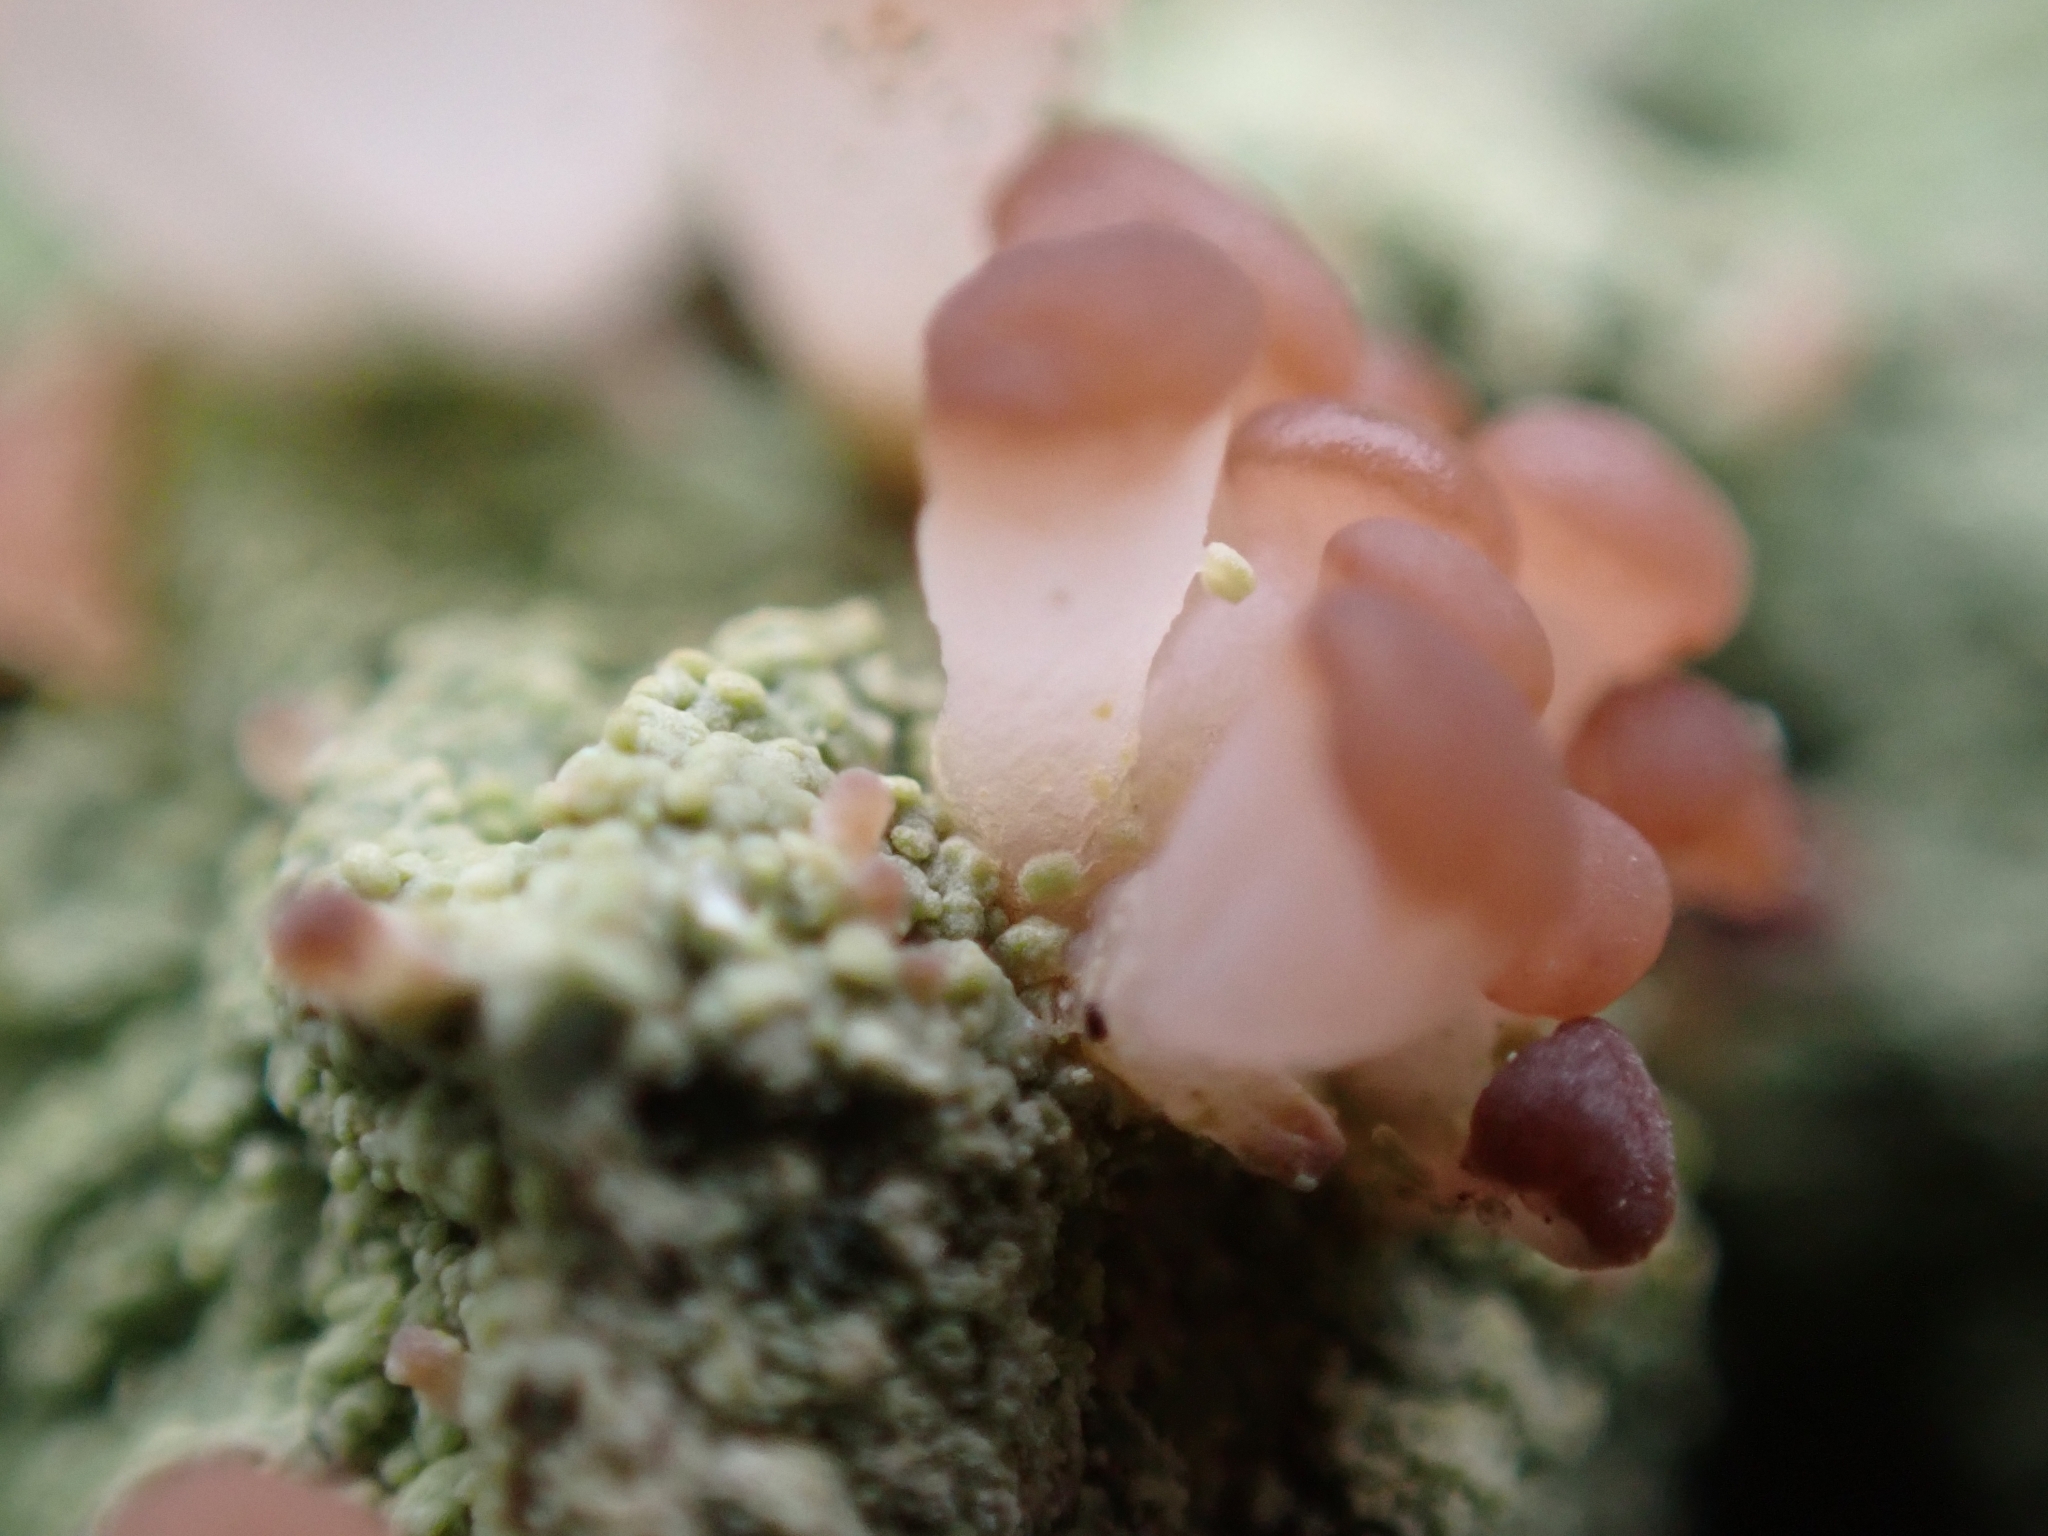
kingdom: Fungi
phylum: Ascomycota
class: Lecanoromycetes
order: Baeomycetales
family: Baeomycetaceae
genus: Baeomyces
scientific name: Baeomyces rufus
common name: Brown beret lichen
